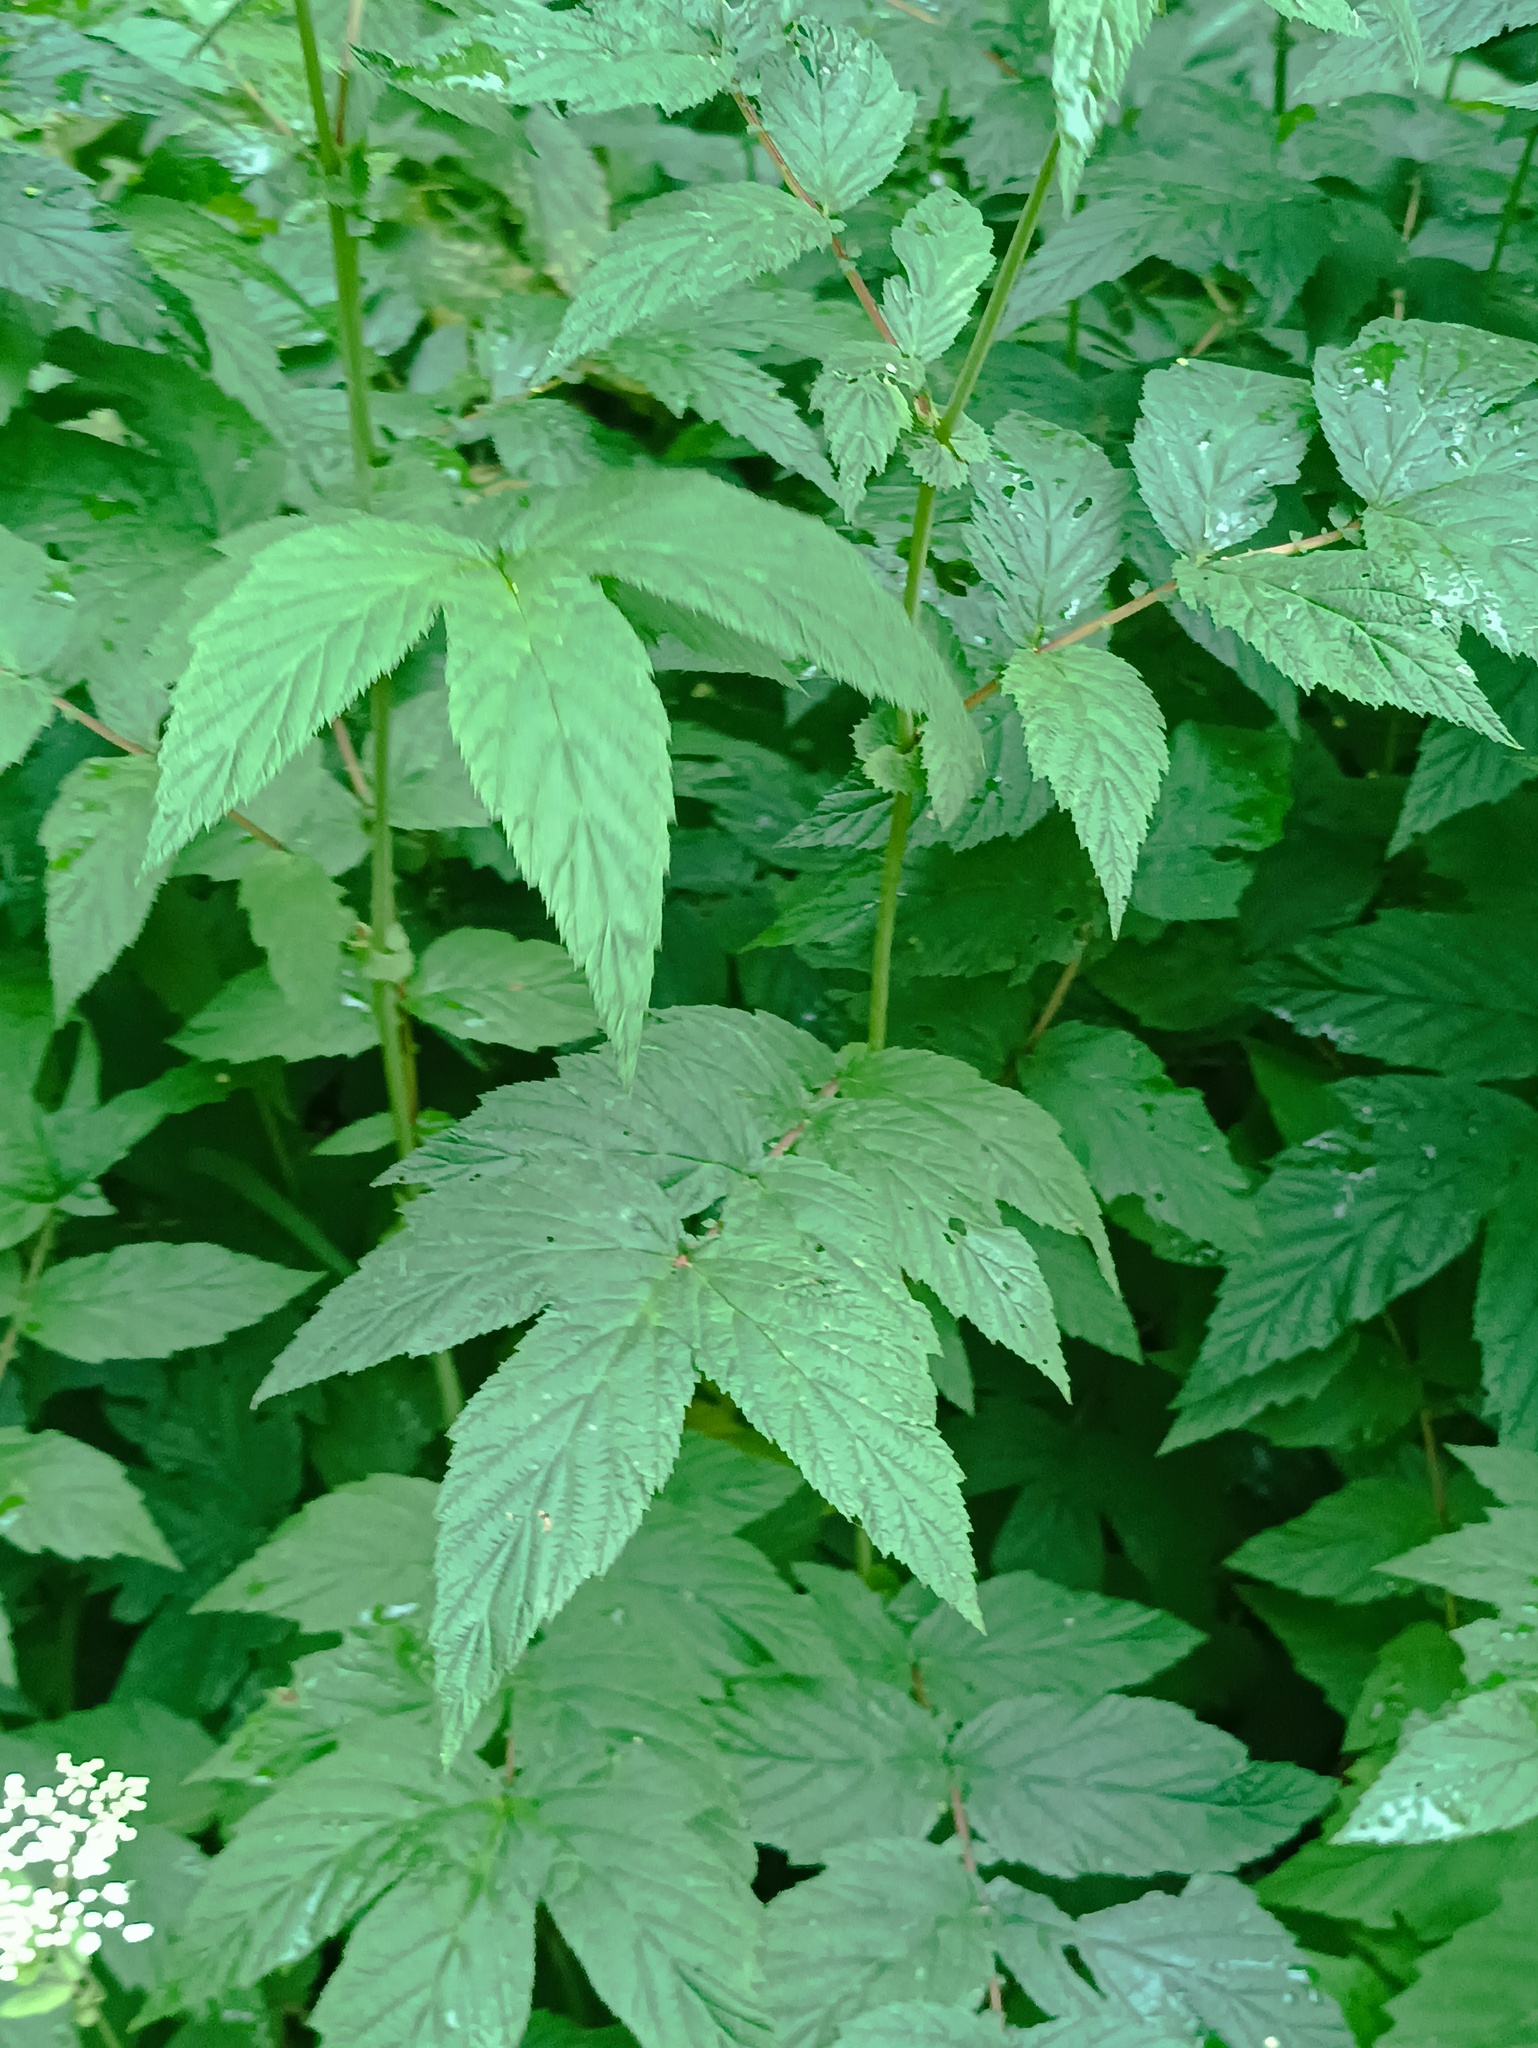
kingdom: Plantae
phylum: Tracheophyta
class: Magnoliopsida
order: Rosales
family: Rosaceae
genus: Filipendula
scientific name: Filipendula ulmaria
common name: Meadowsweet
